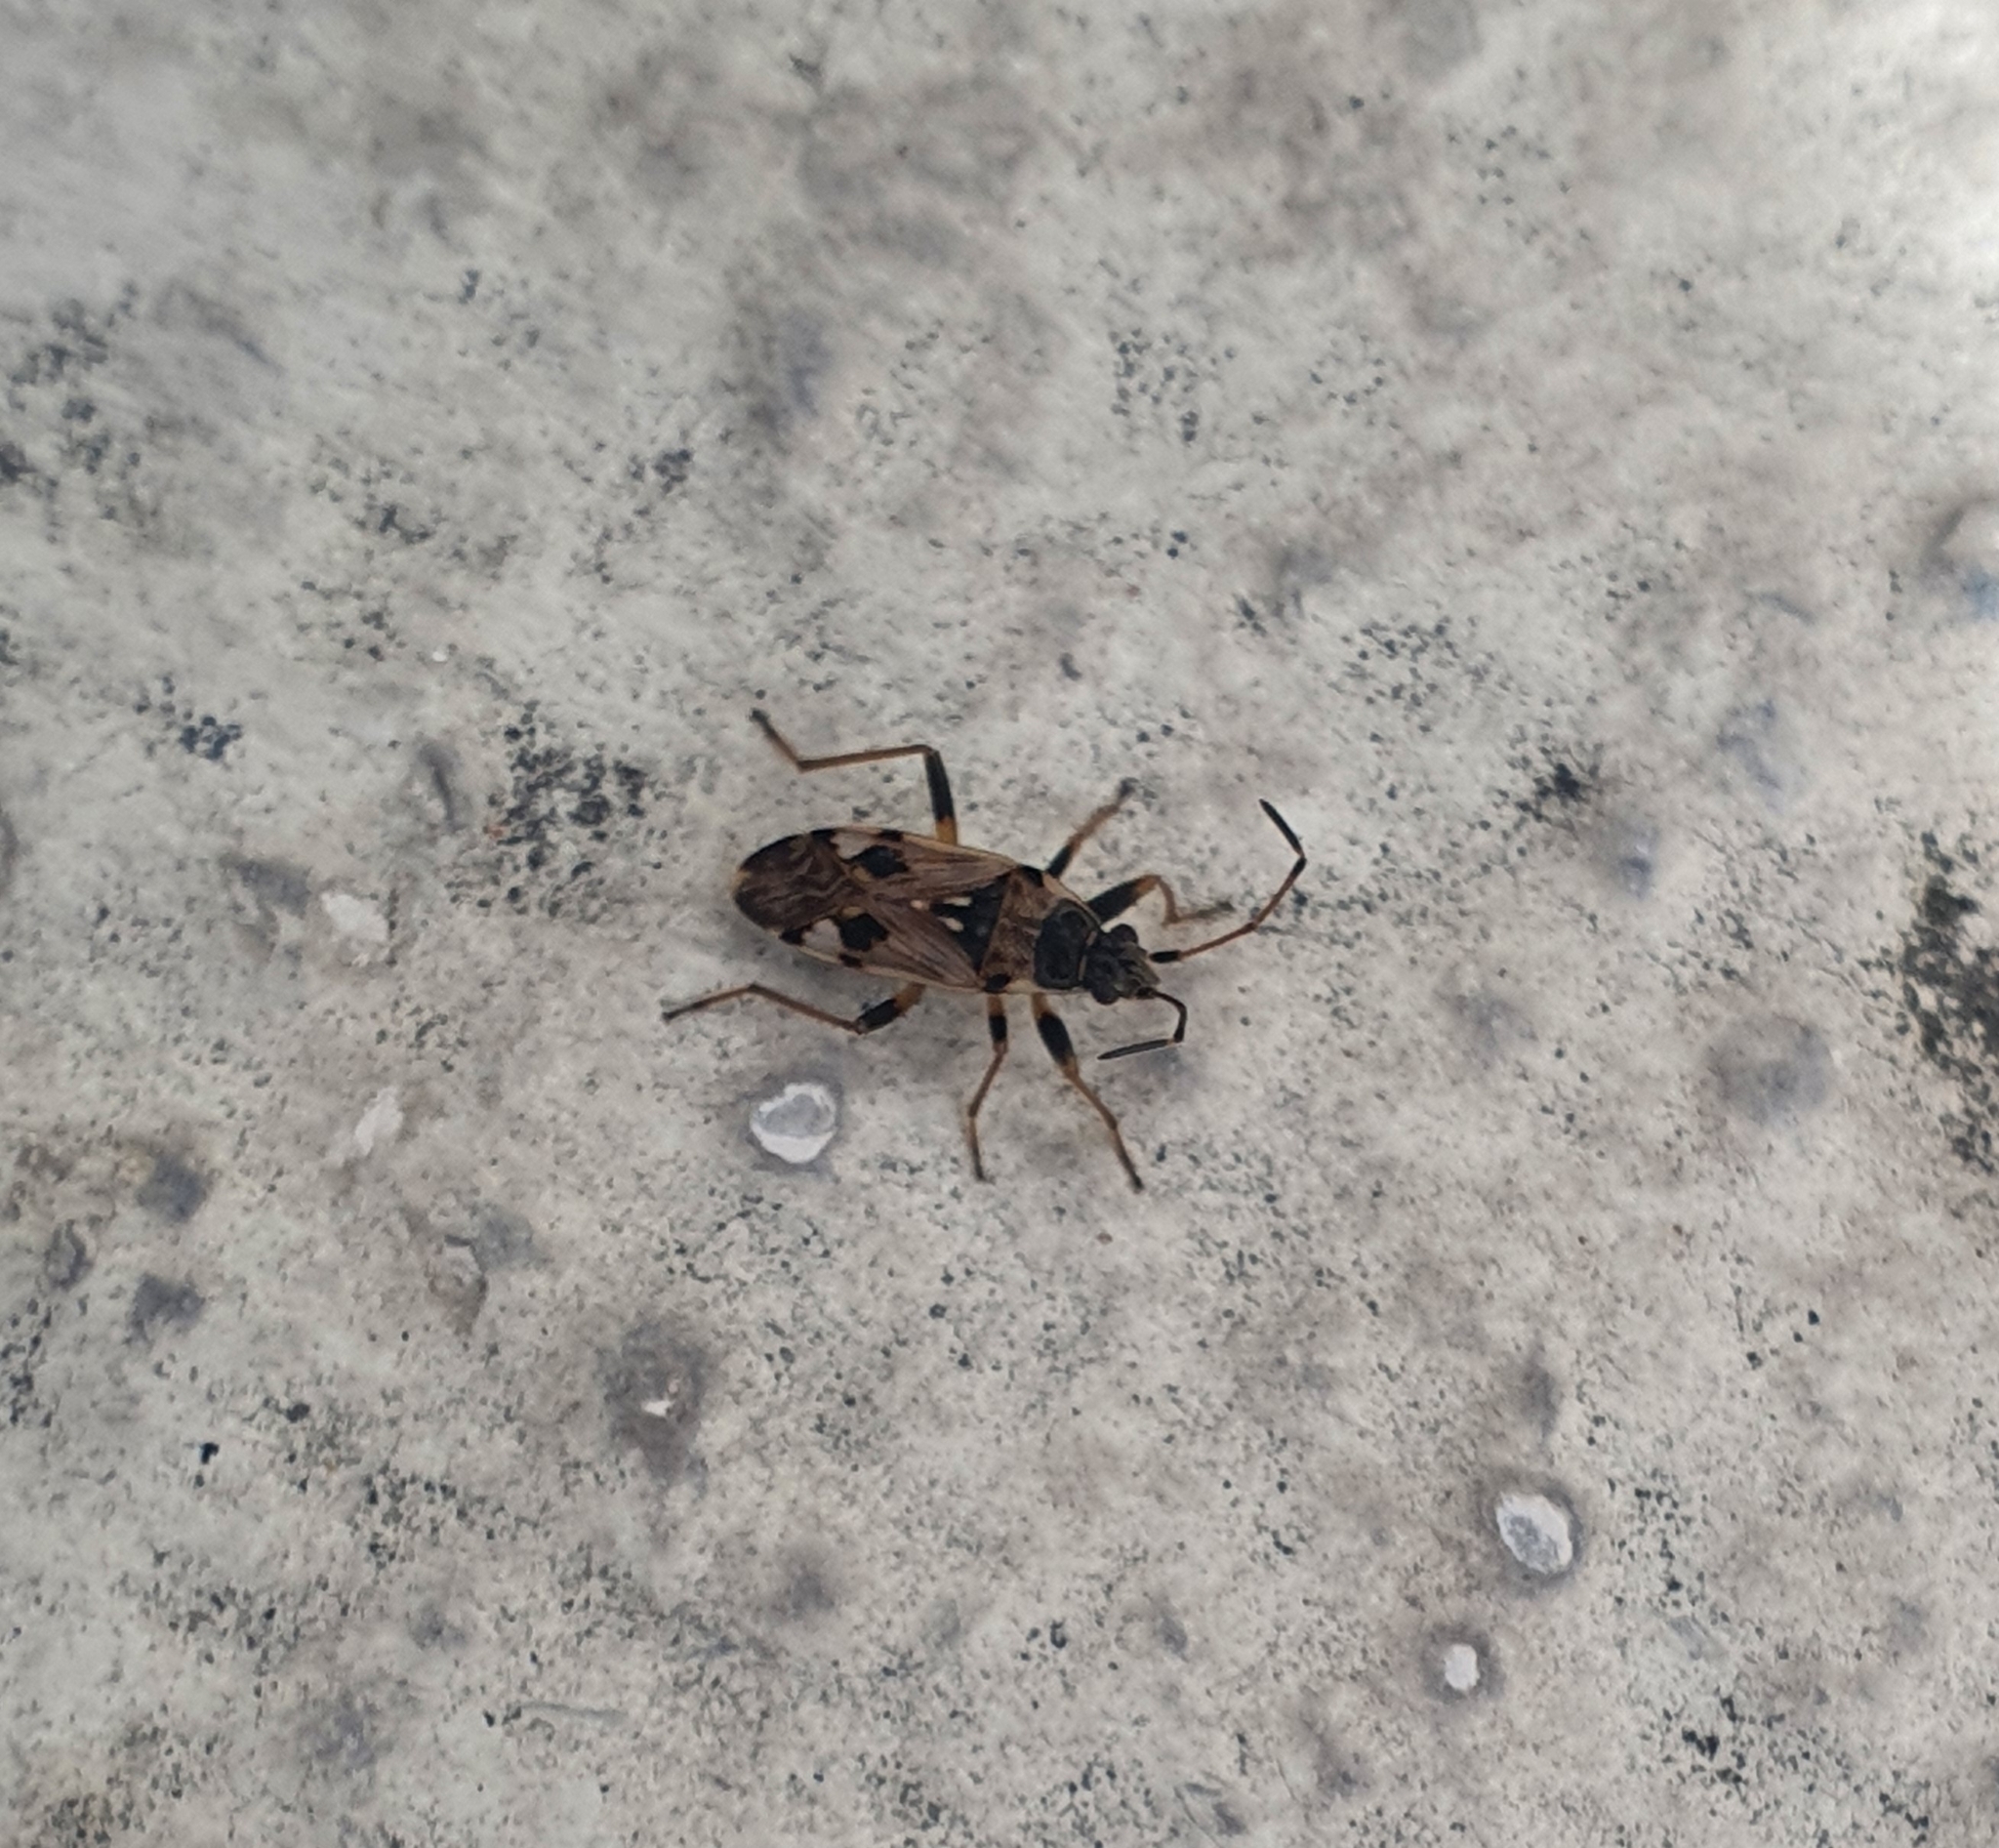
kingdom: Animalia
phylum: Arthropoda
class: Insecta
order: Hemiptera
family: Rhyparochromidae
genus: Beosus
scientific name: Beosus maritimus
